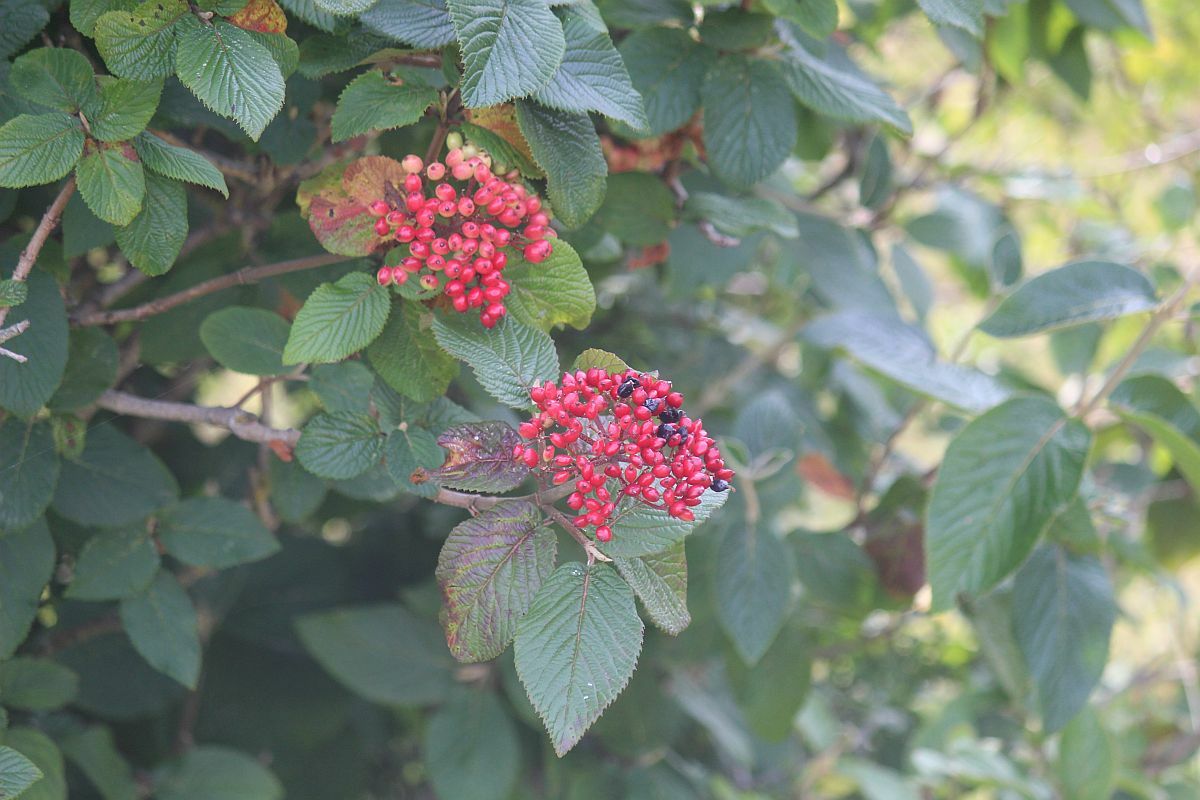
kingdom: Plantae
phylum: Tracheophyta
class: Magnoliopsida
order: Dipsacales
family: Viburnaceae
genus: Viburnum
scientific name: Viburnum lantana
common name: Wayfaring tree
